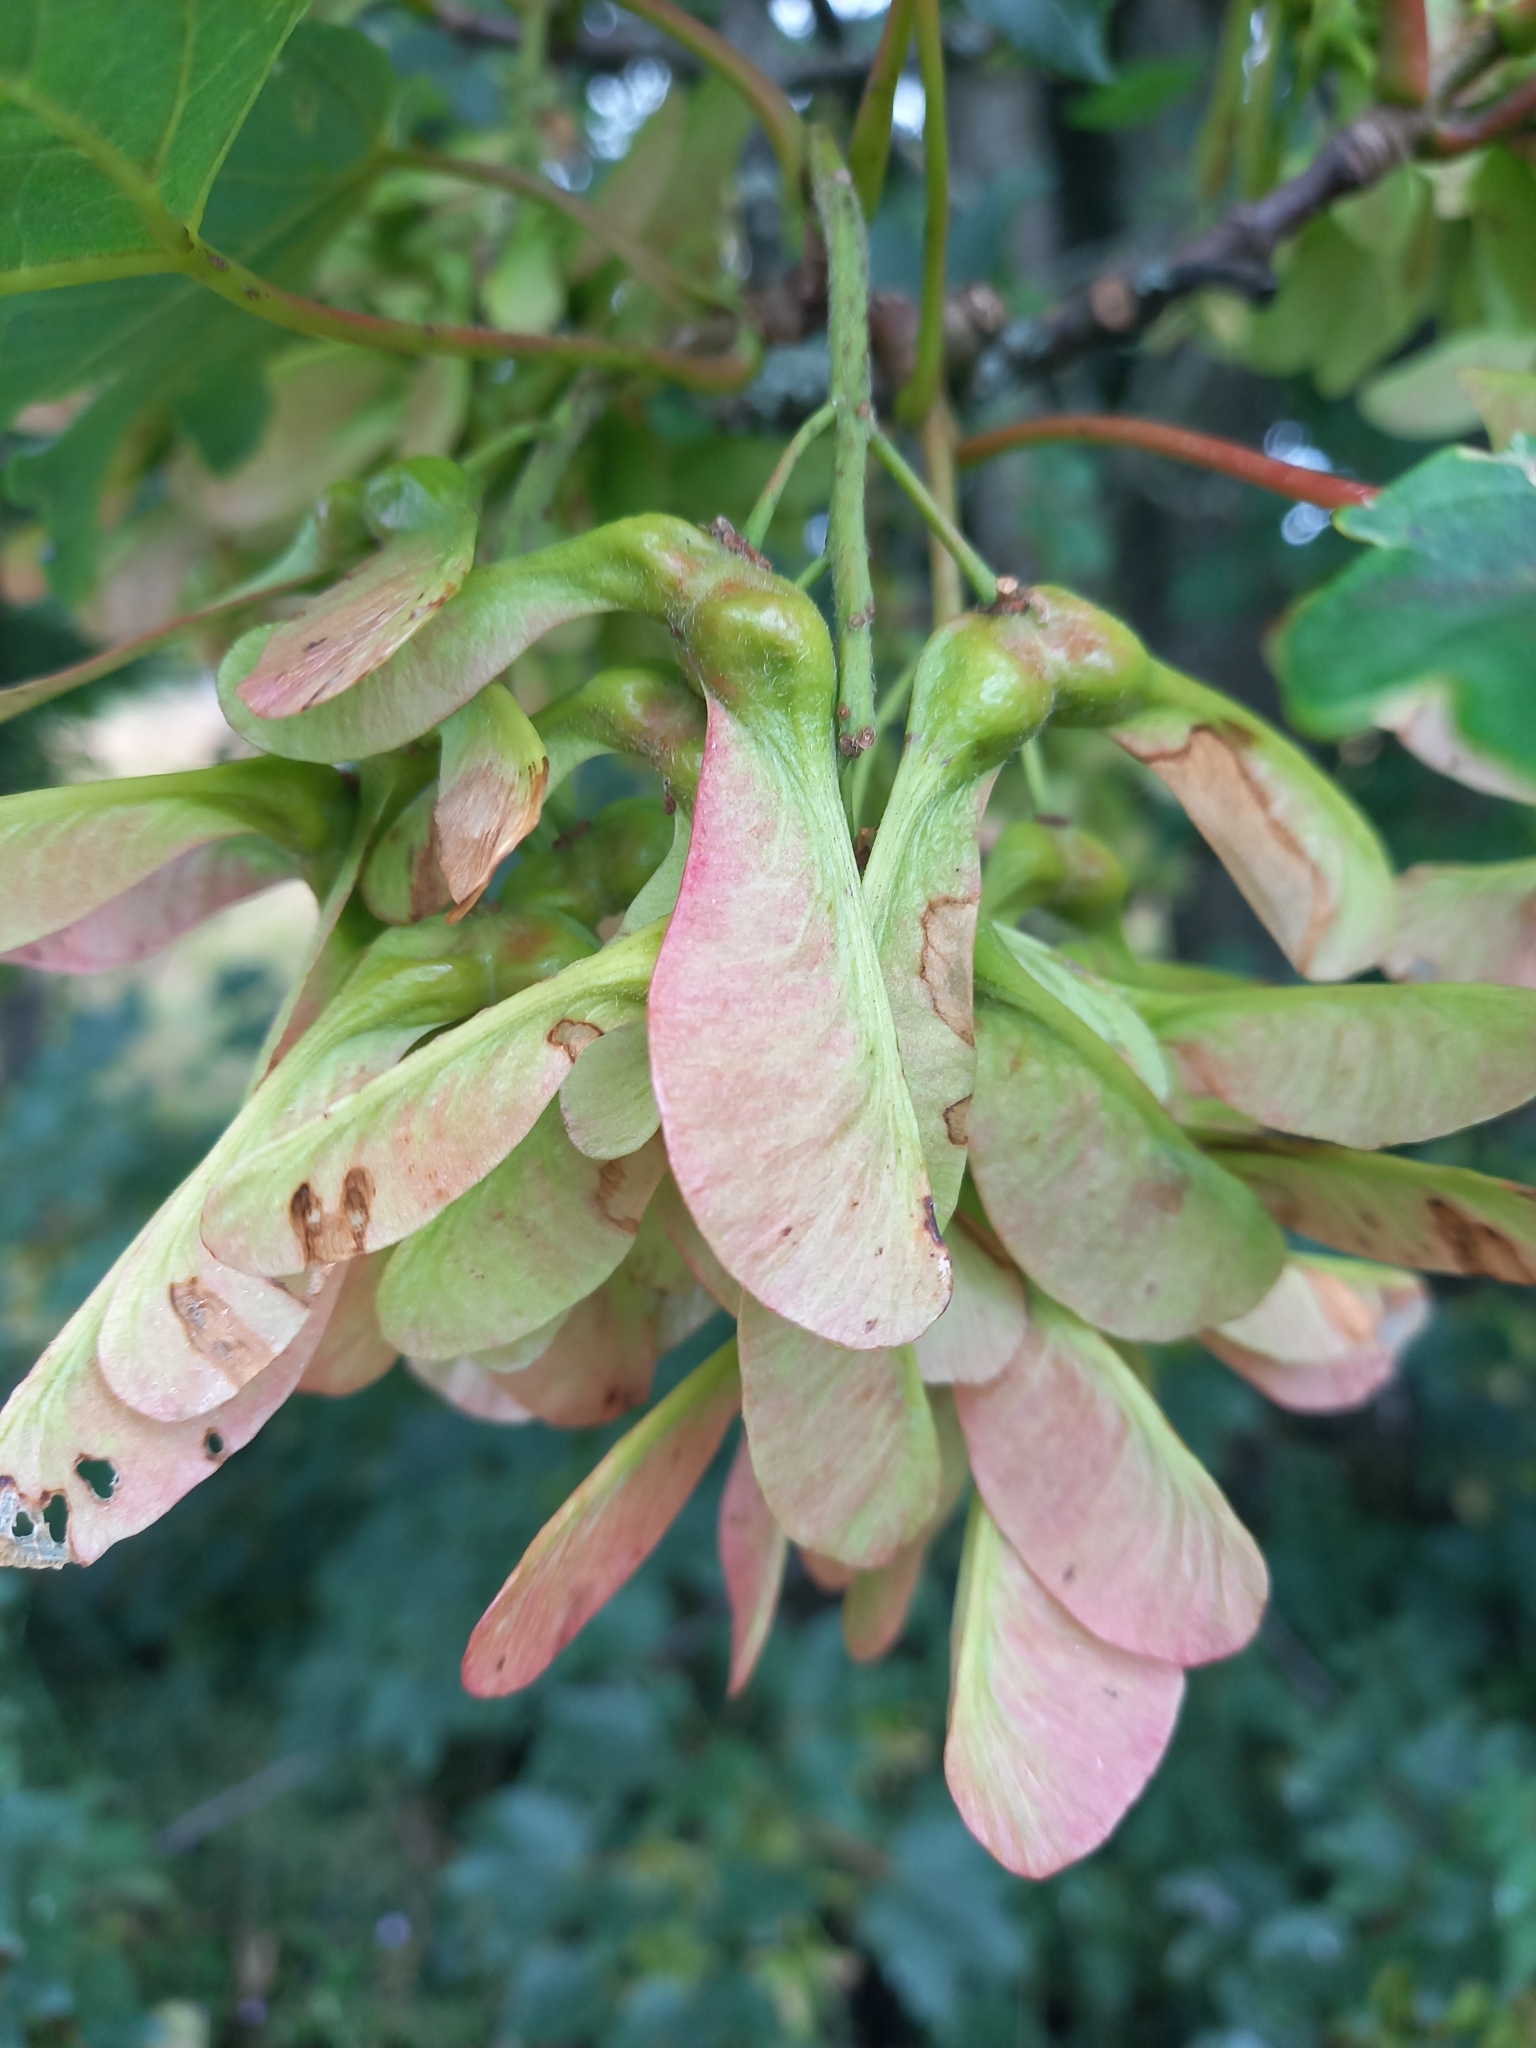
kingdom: Plantae
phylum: Tracheophyta
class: Magnoliopsida
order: Sapindales
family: Sapindaceae
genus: Acer
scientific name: Acer pseudoplatanus
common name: Sycamore
